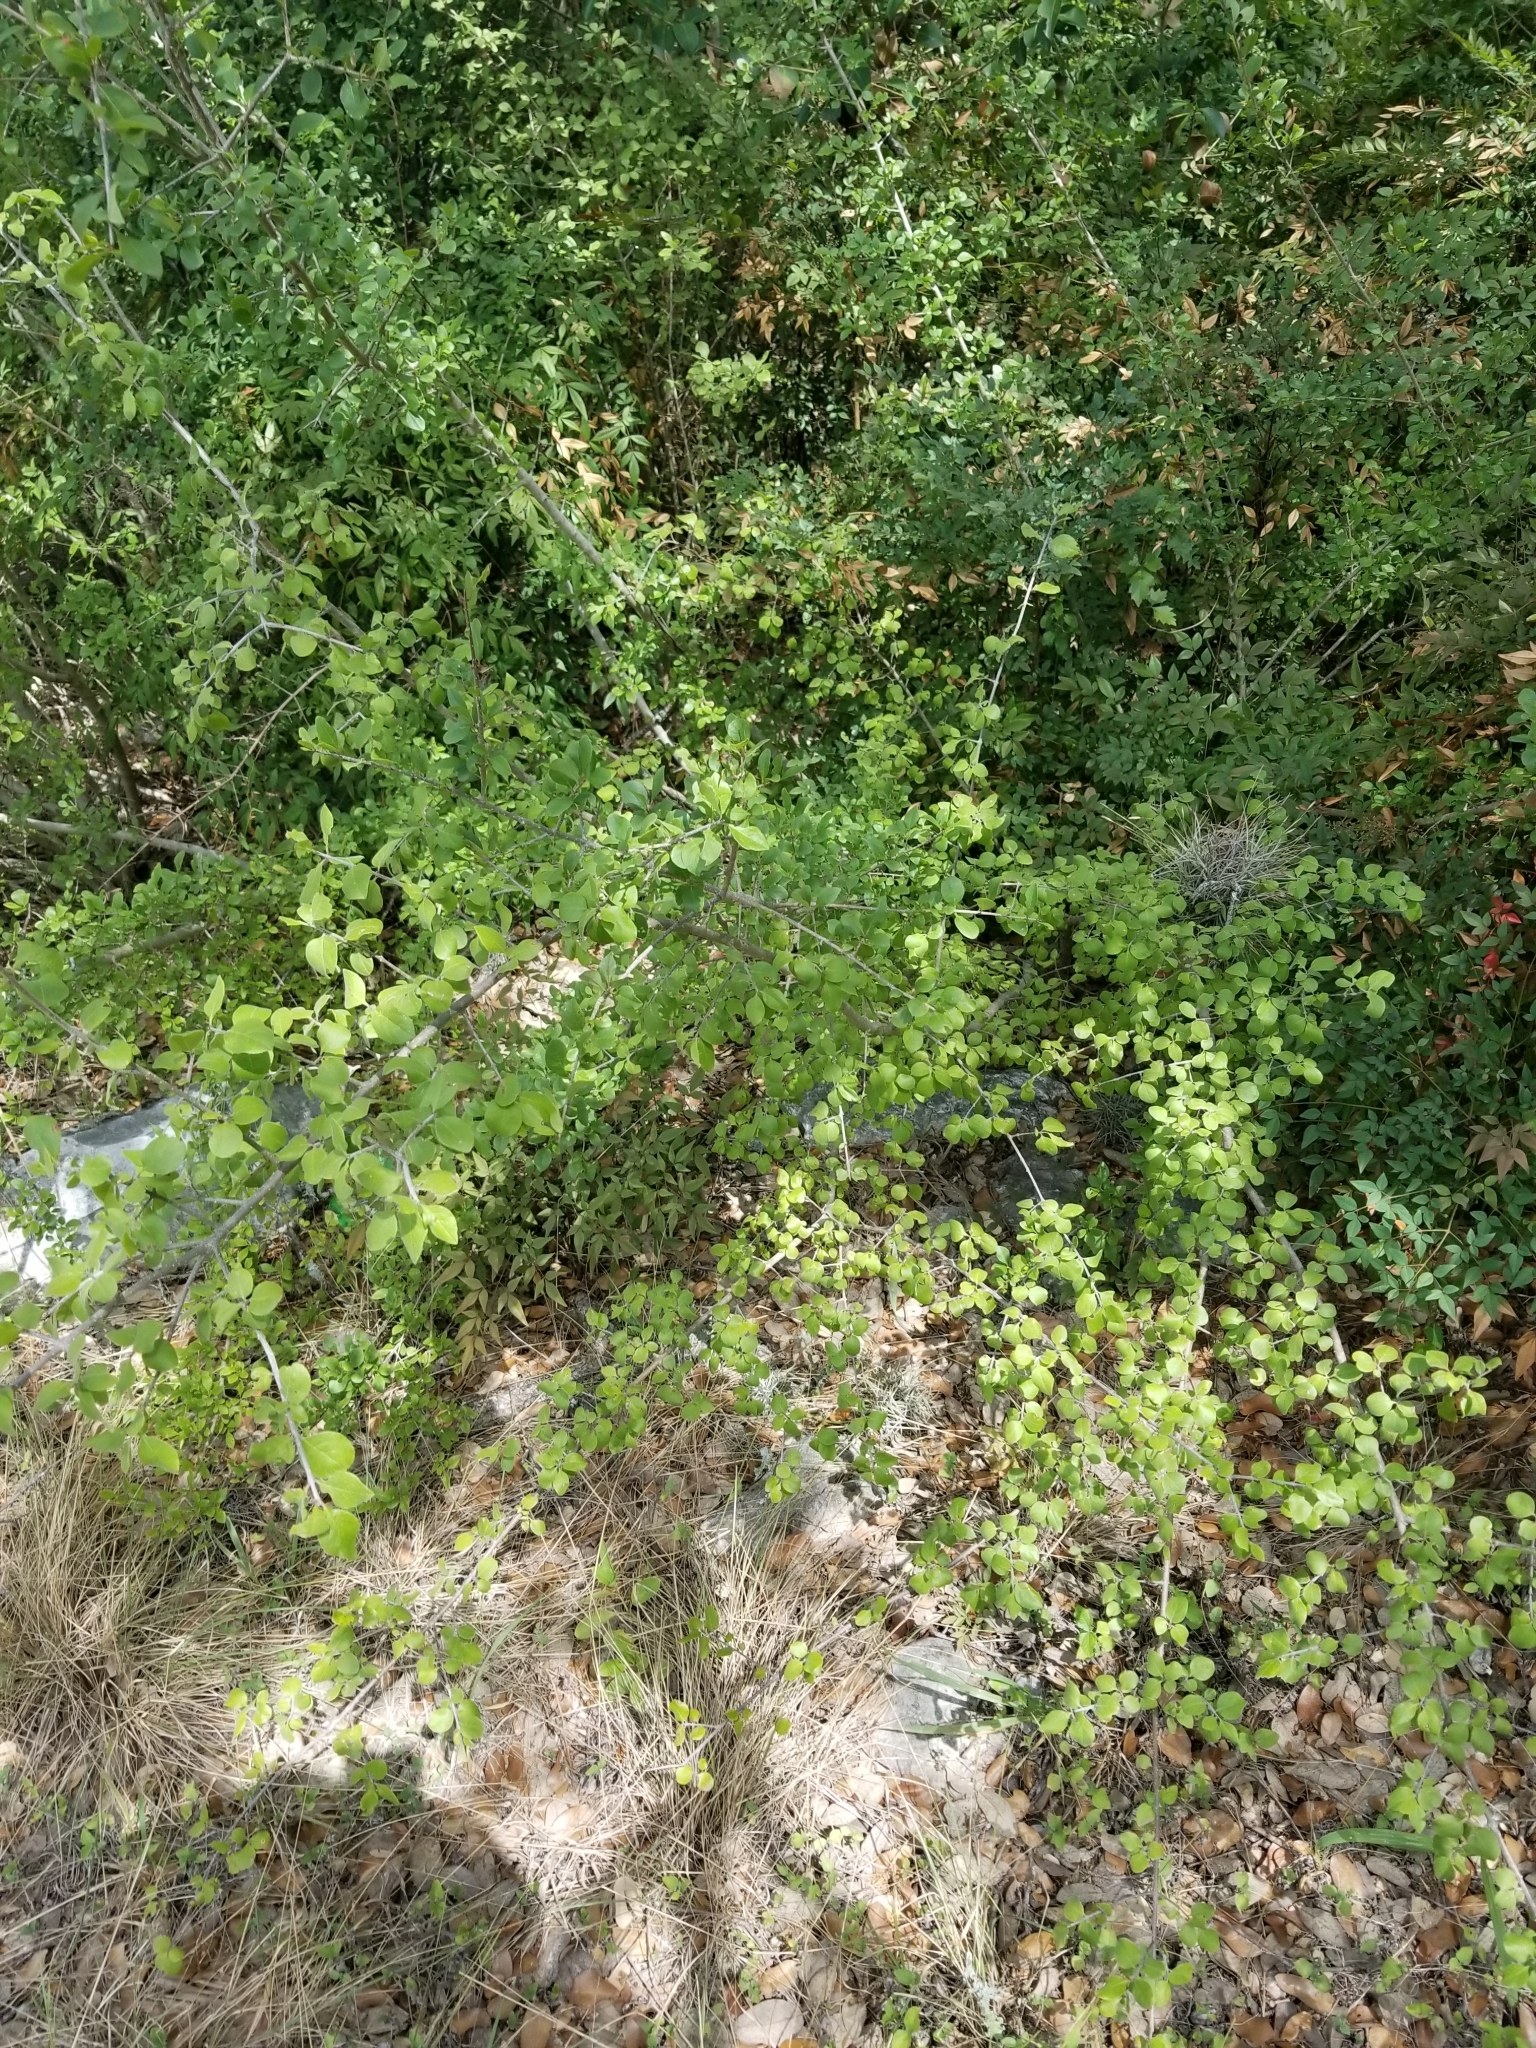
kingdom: Plantae
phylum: Tracheophyta
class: Magnoliopsida
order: Lamiales
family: Oleaceae
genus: Forestiera
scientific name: Forestiera pubescens
